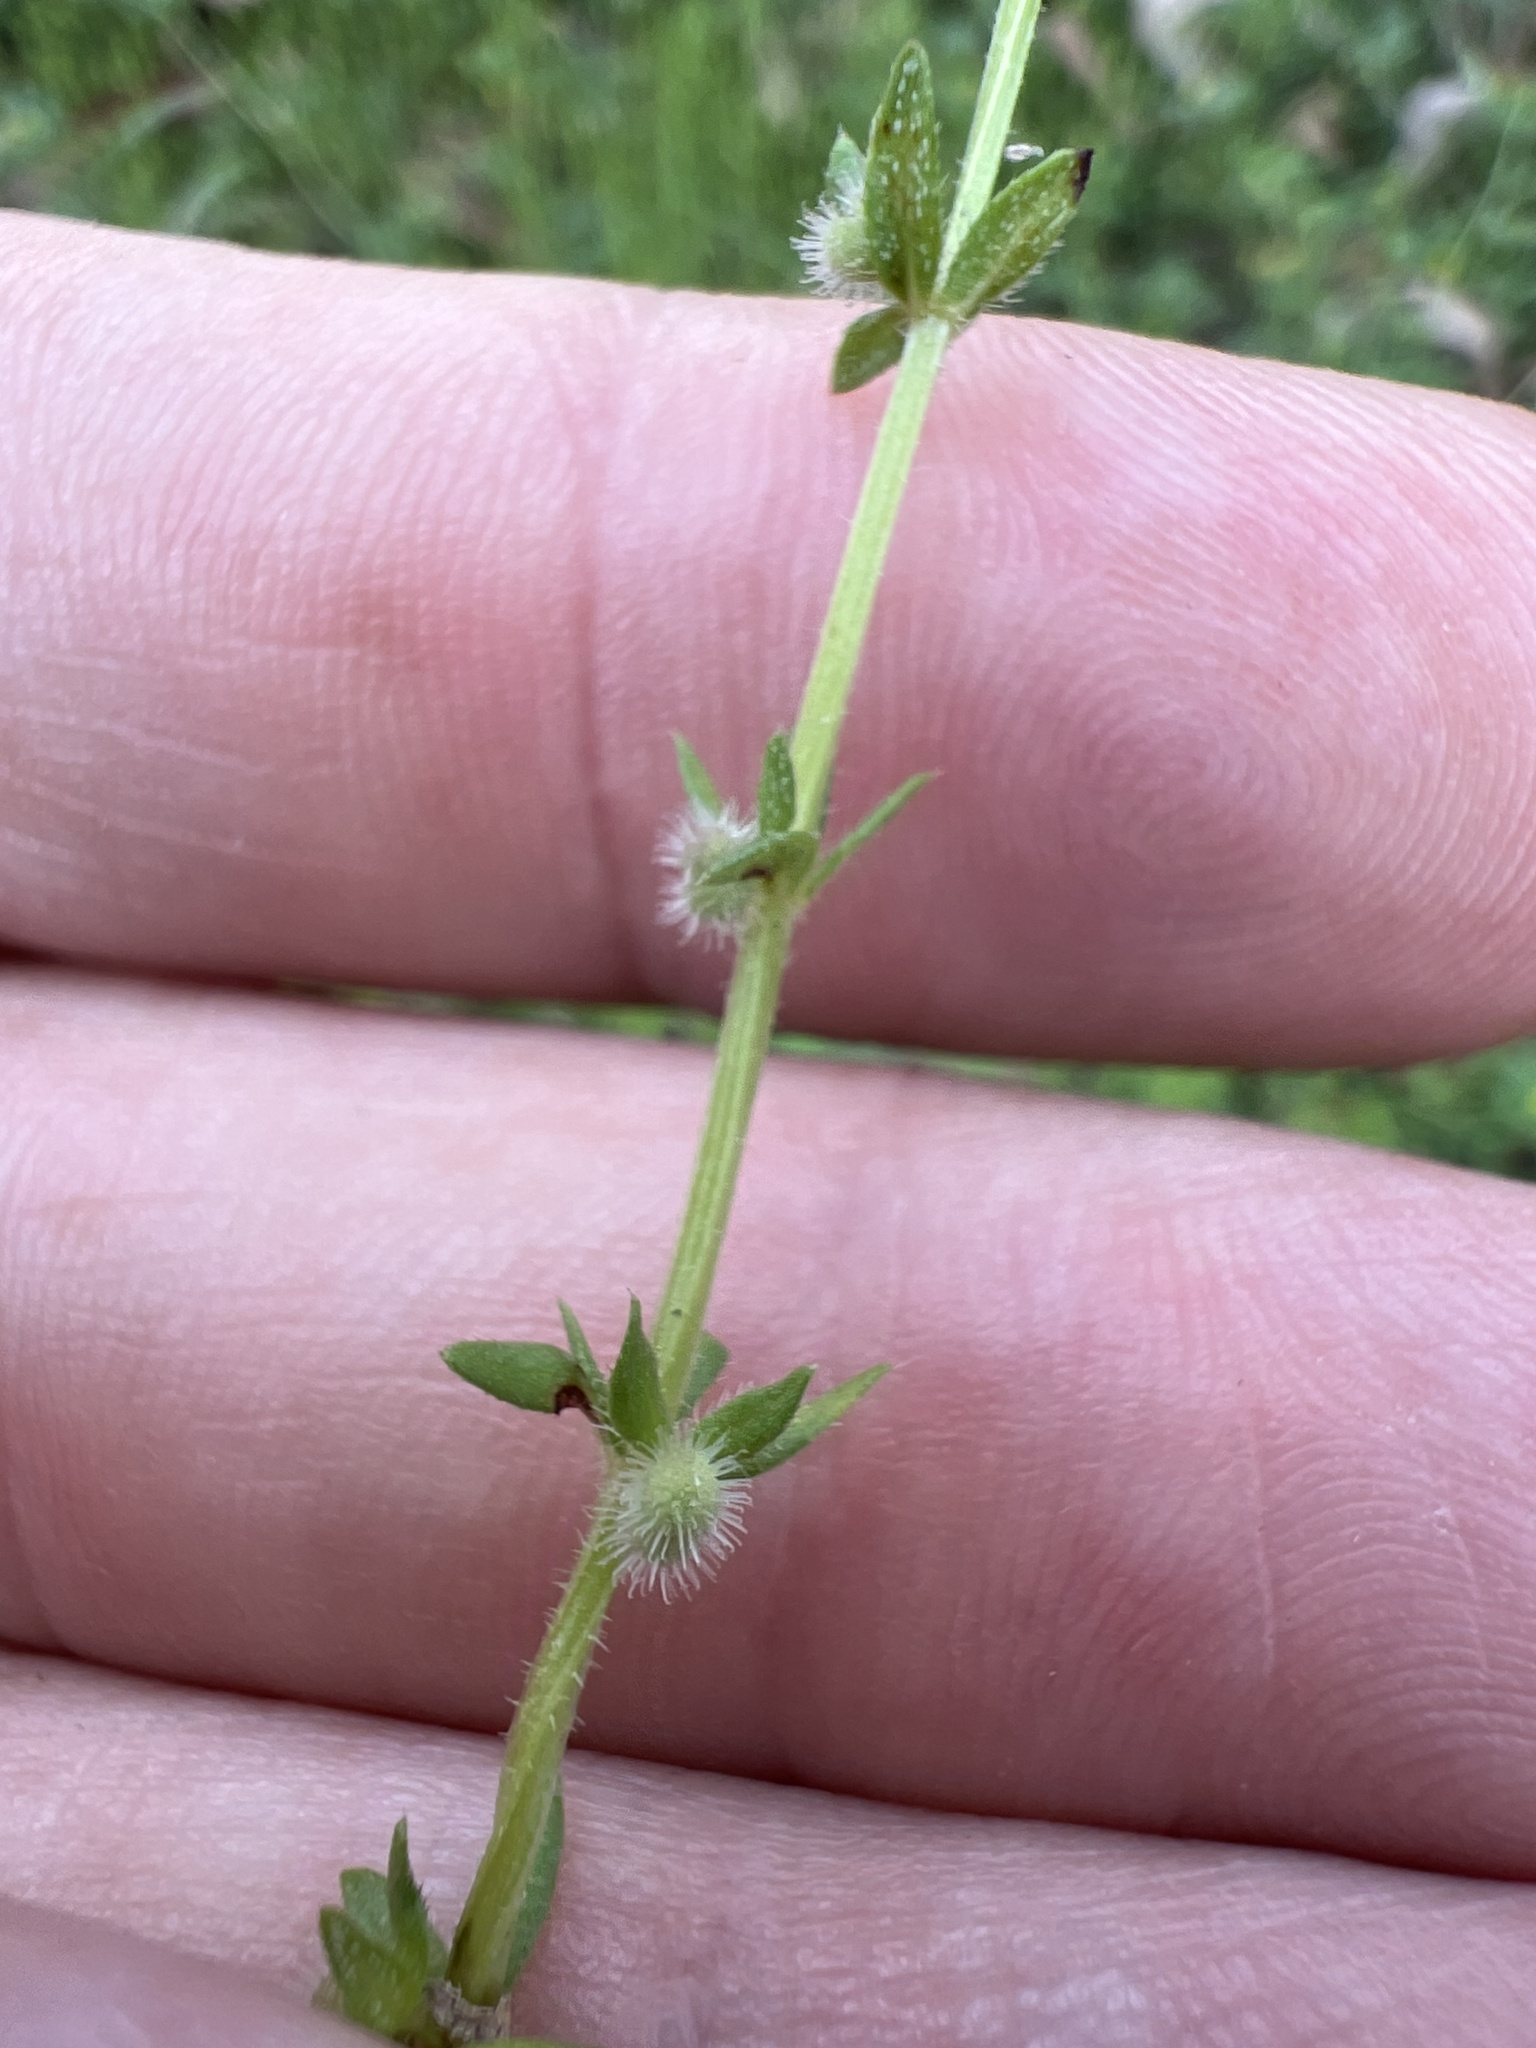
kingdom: Plantae
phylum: Tracheophyta
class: Magnoliopsida
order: Gentianales
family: Rubiaceae
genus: Galium
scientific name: Galium virgatum
